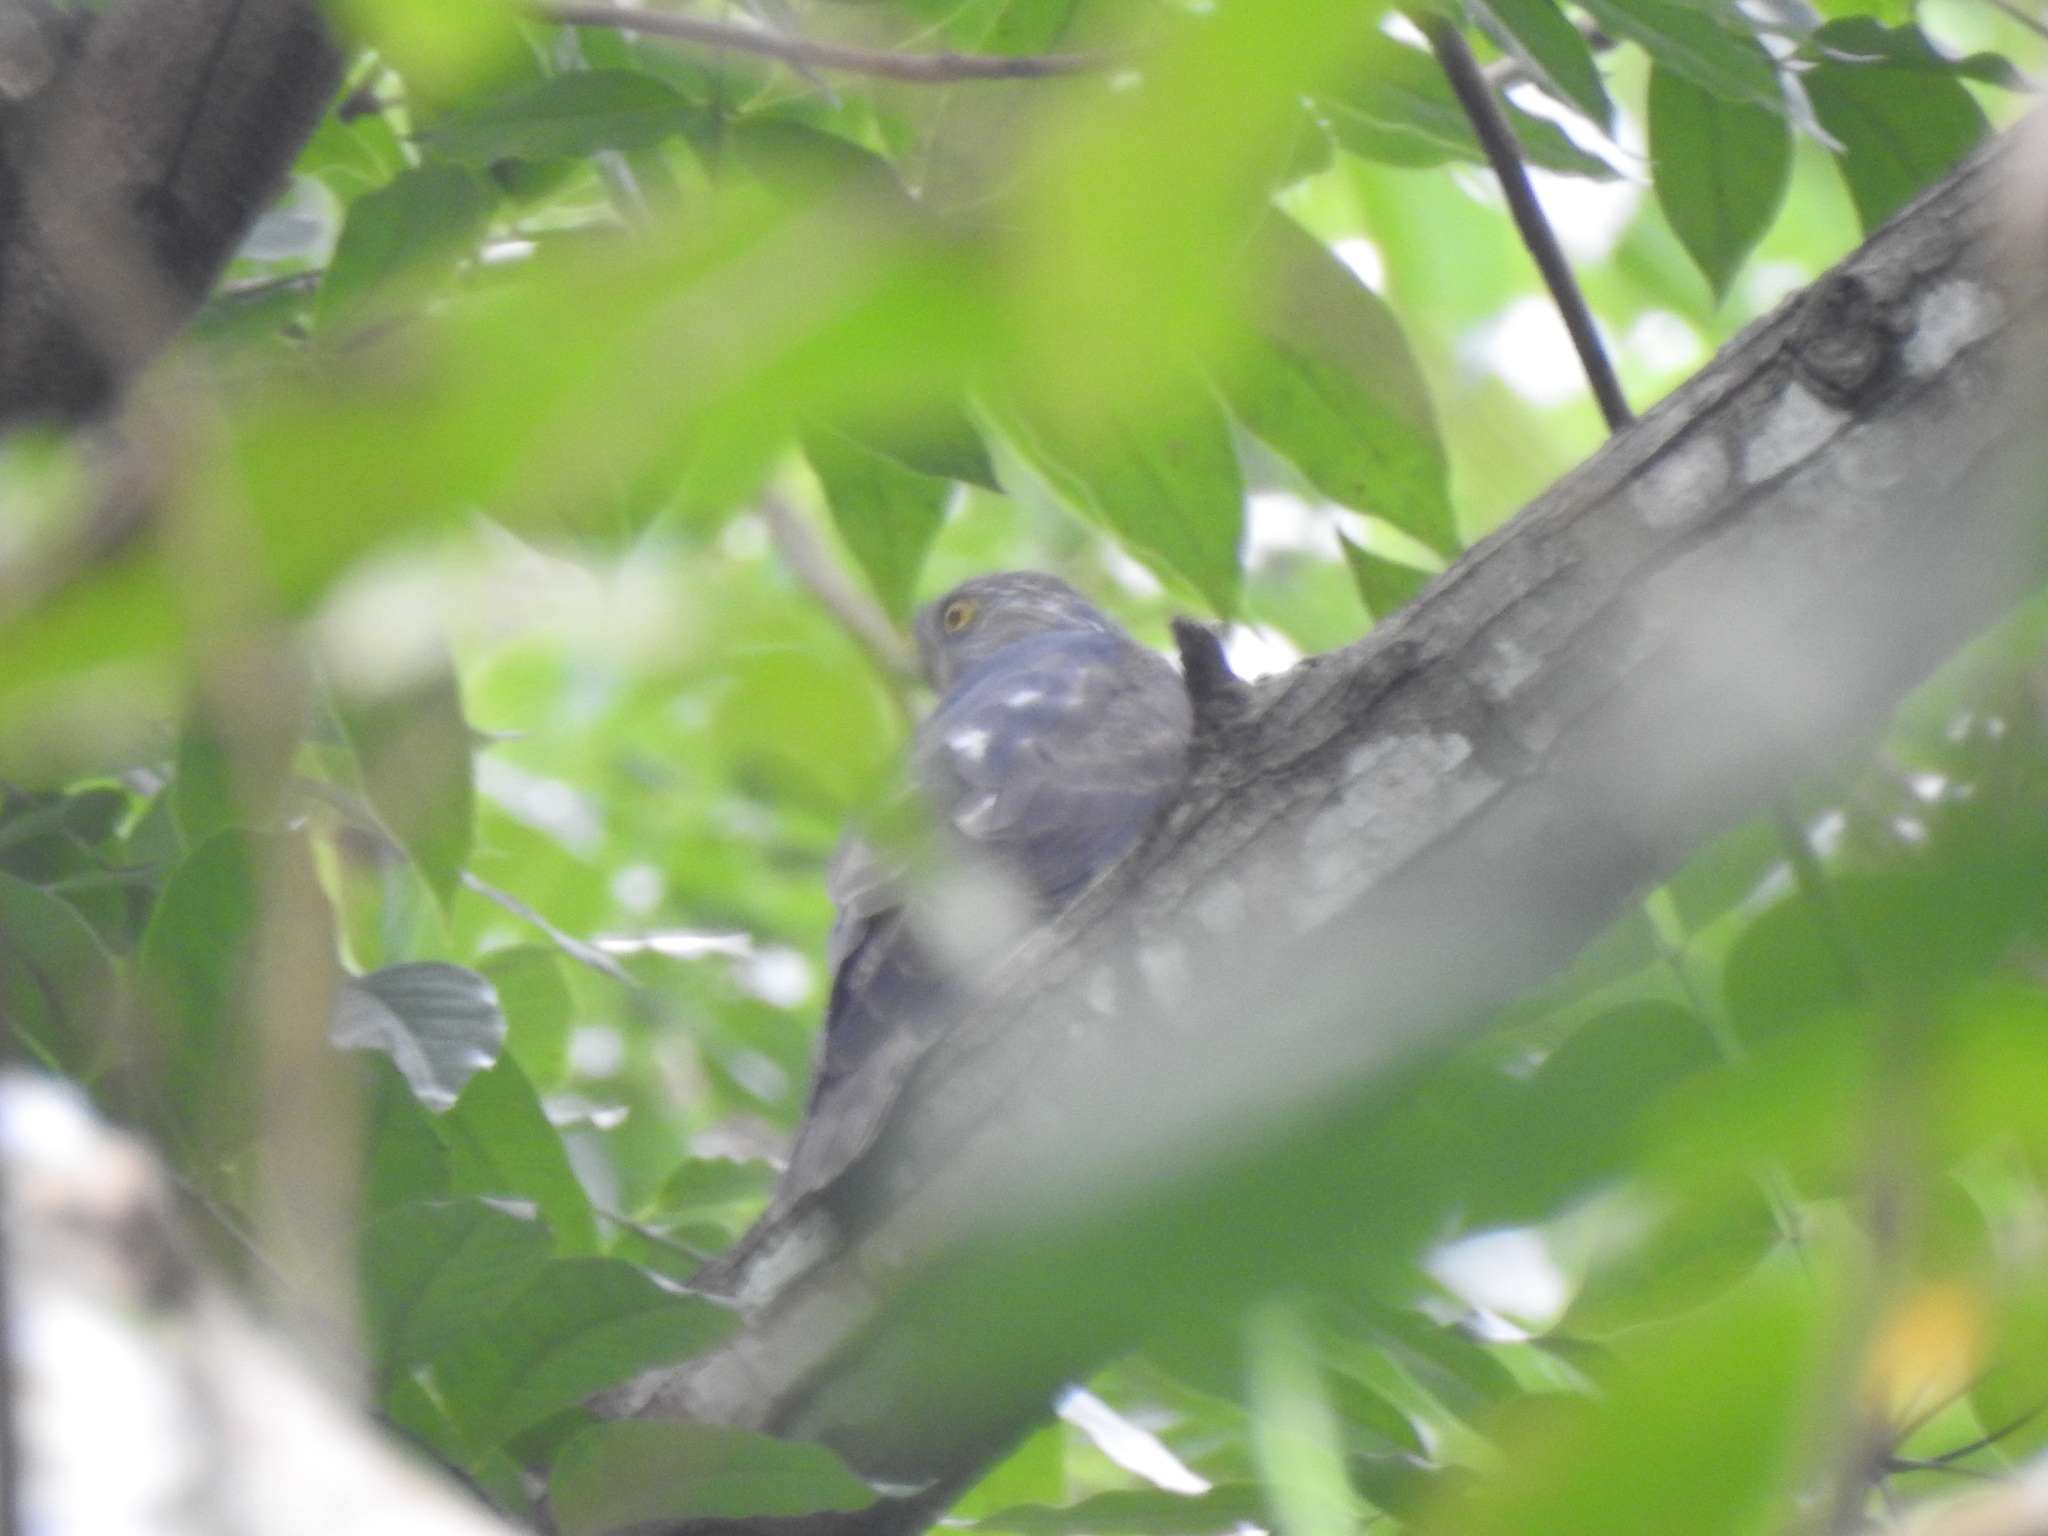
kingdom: Animalia
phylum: Chordata
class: Aves
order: Accipitriformes
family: Accipitridae
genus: Accipiter
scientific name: Accipiter soloensis
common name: Chinese sparrowhawk
